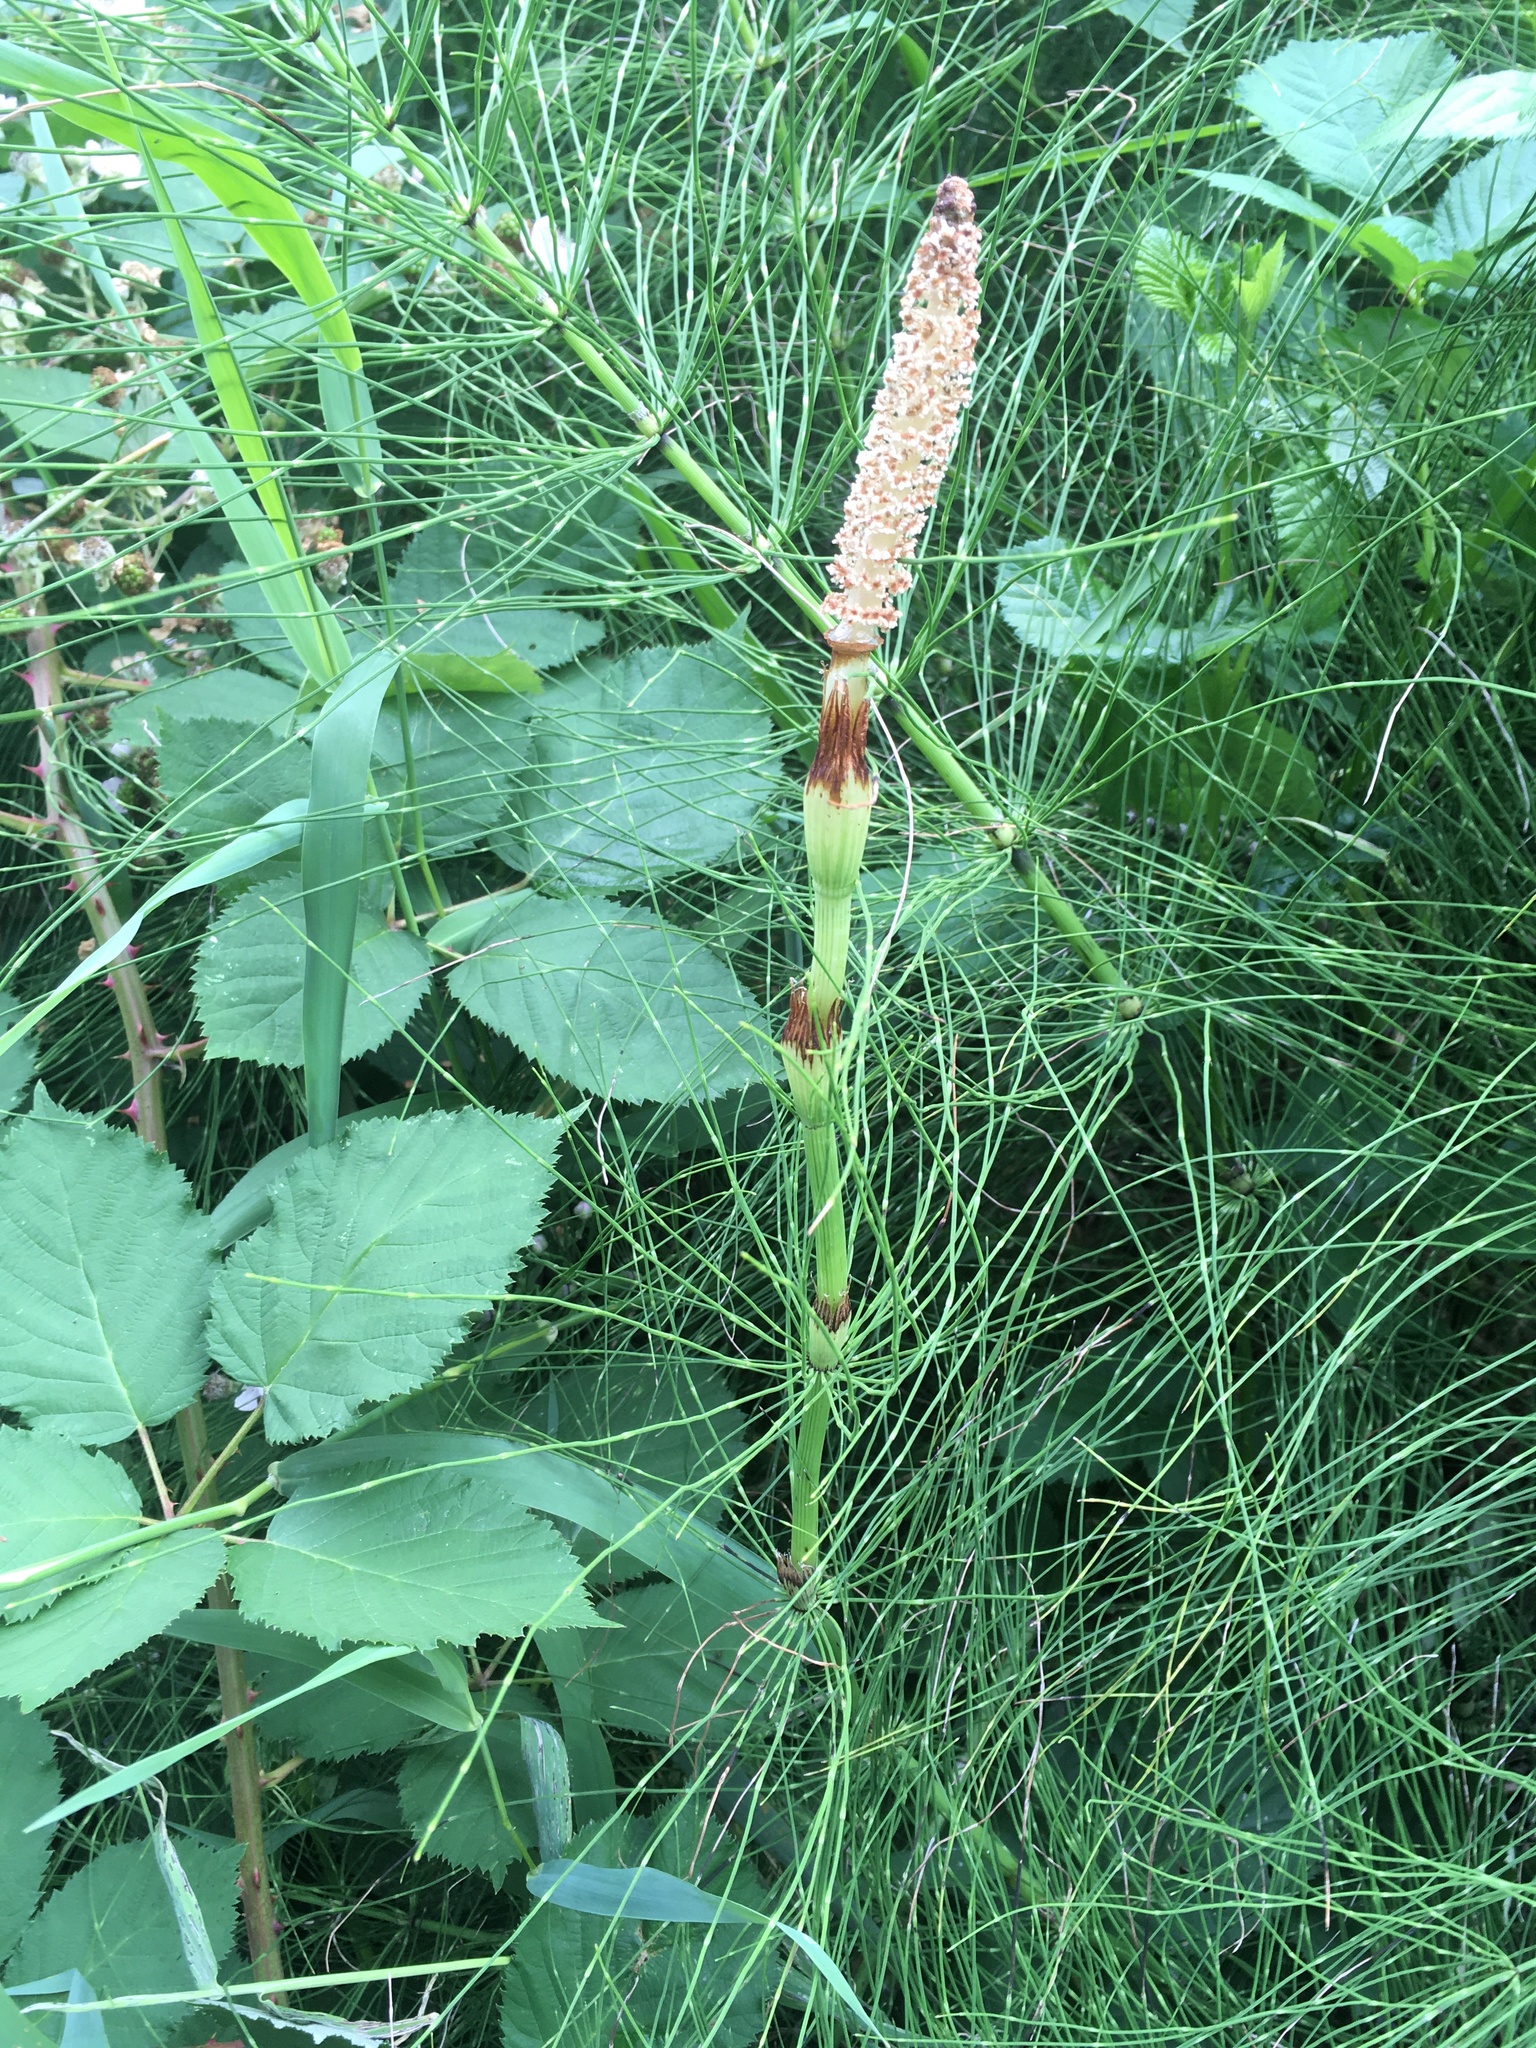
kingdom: Plantae
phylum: Tracheophyta
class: Polypodiopsida
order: Equisetales
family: Equisetaceae
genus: Equisetum
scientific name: Equisetum braunii
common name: Braun's horsetail
